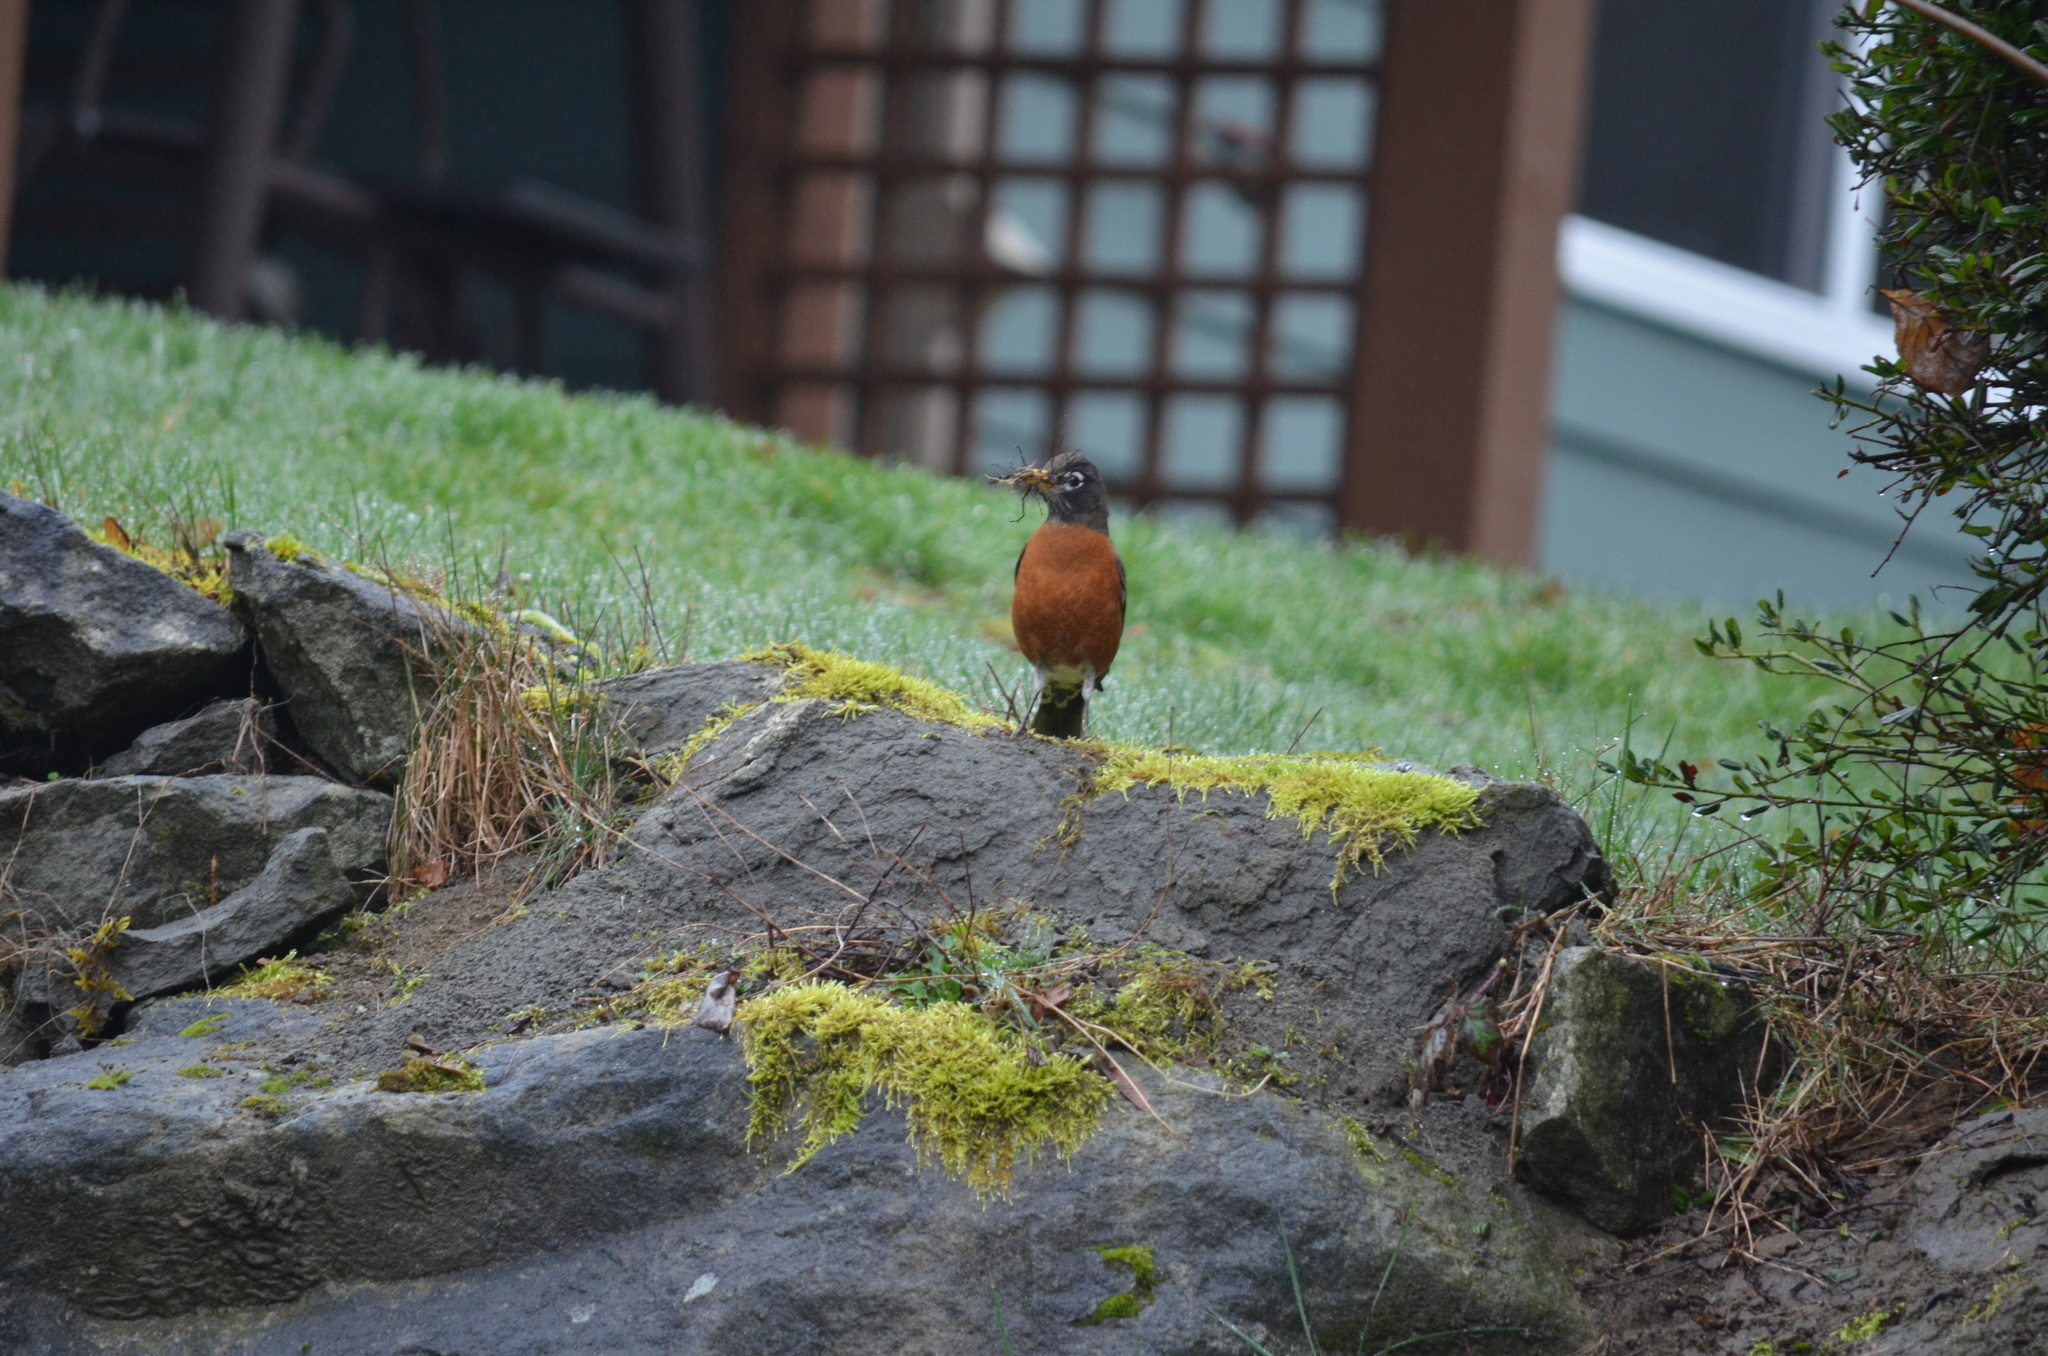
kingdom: Animalia
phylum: Chordata
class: Aves
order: Passeriformes
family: Turdidae
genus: Turdus
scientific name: Turdus migratorius
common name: American robin
